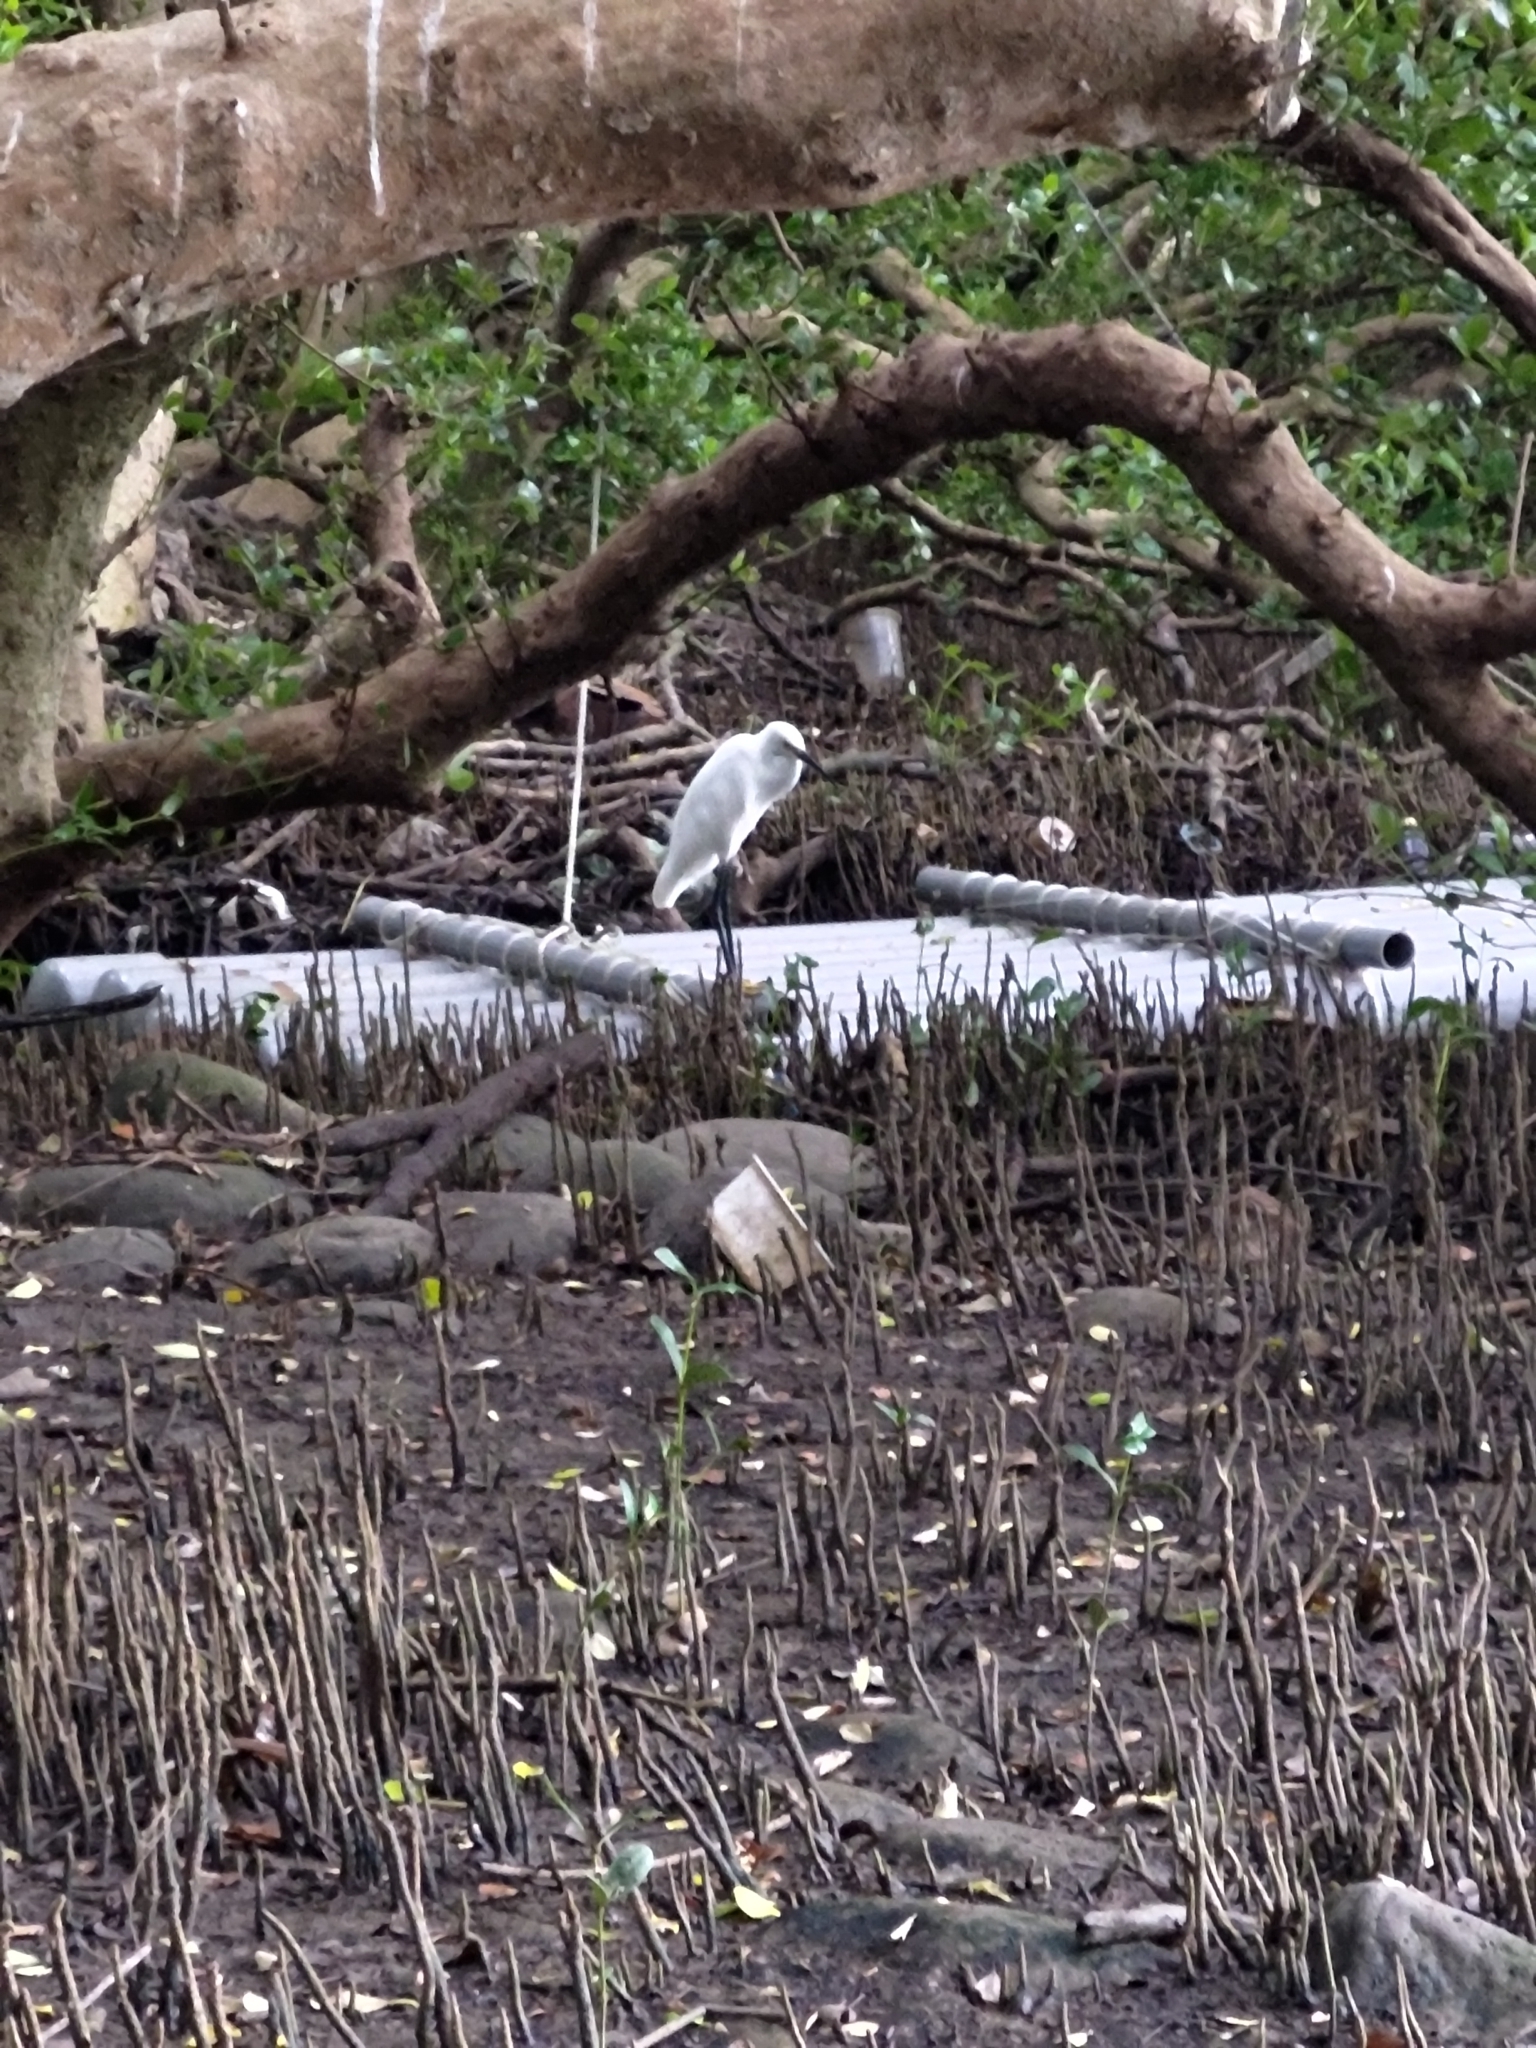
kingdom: Animalia
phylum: Chordata
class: Aves
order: Pelecaniformes
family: Ardeidae
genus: Egretta
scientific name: Egretta garzetta
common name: Little egret
